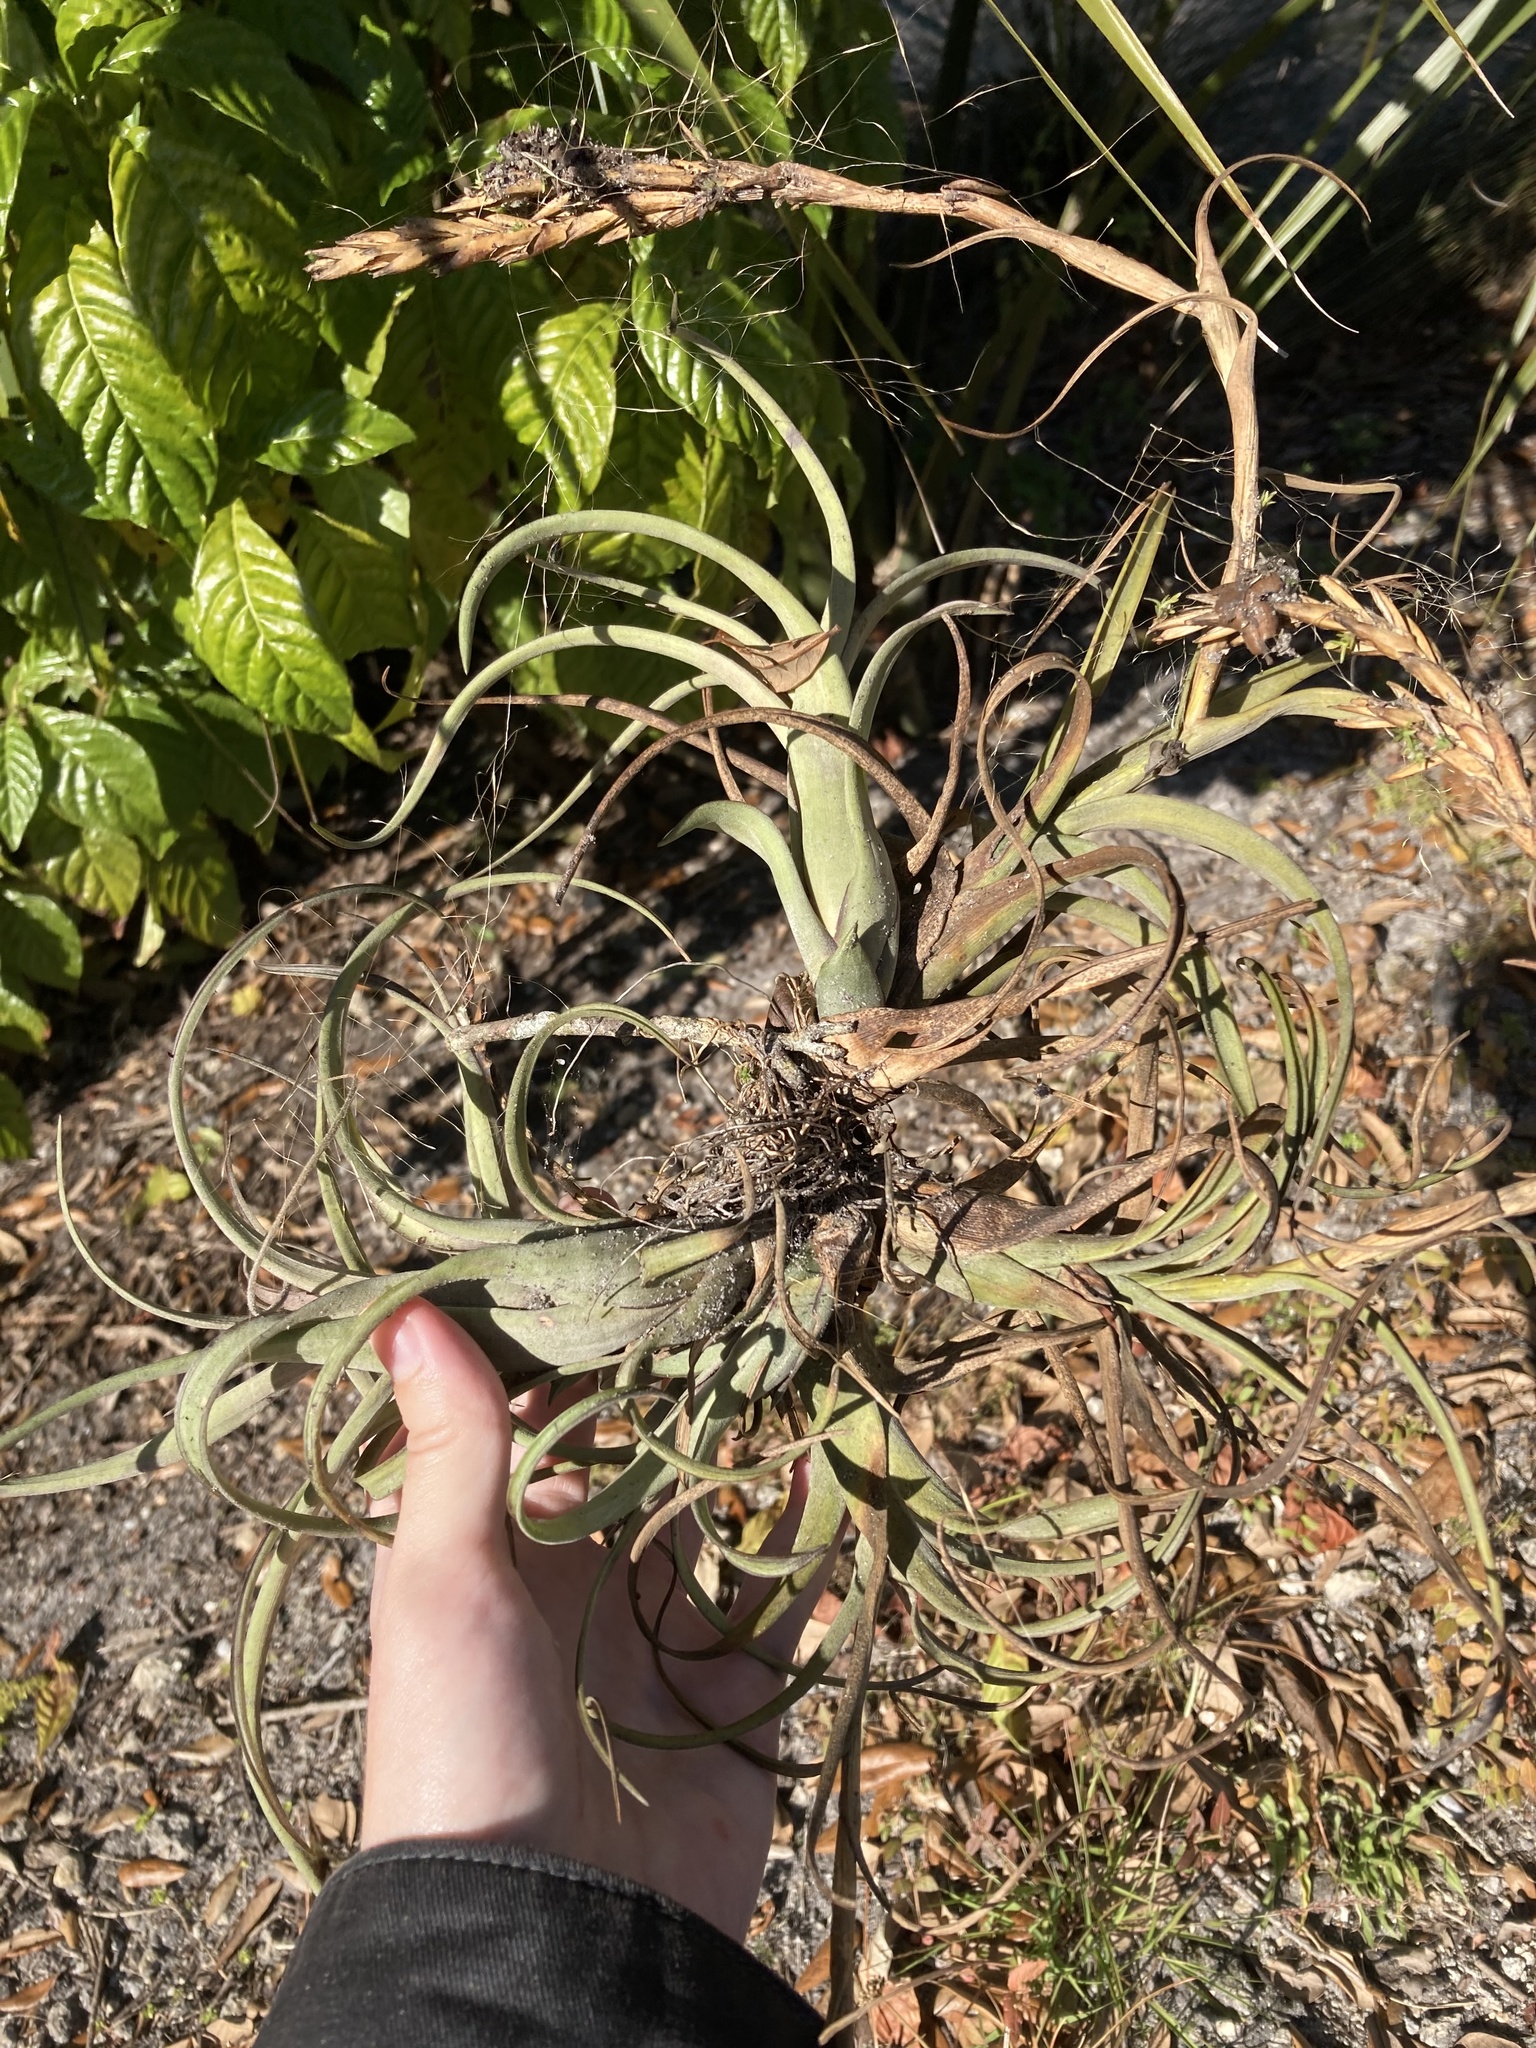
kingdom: Plantae
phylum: Tracheophyta
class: Liliopsida
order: Poales
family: Bromeliaceae
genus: Tillandsia
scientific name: Tillandsia balbisiana
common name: Northern needleleaf
